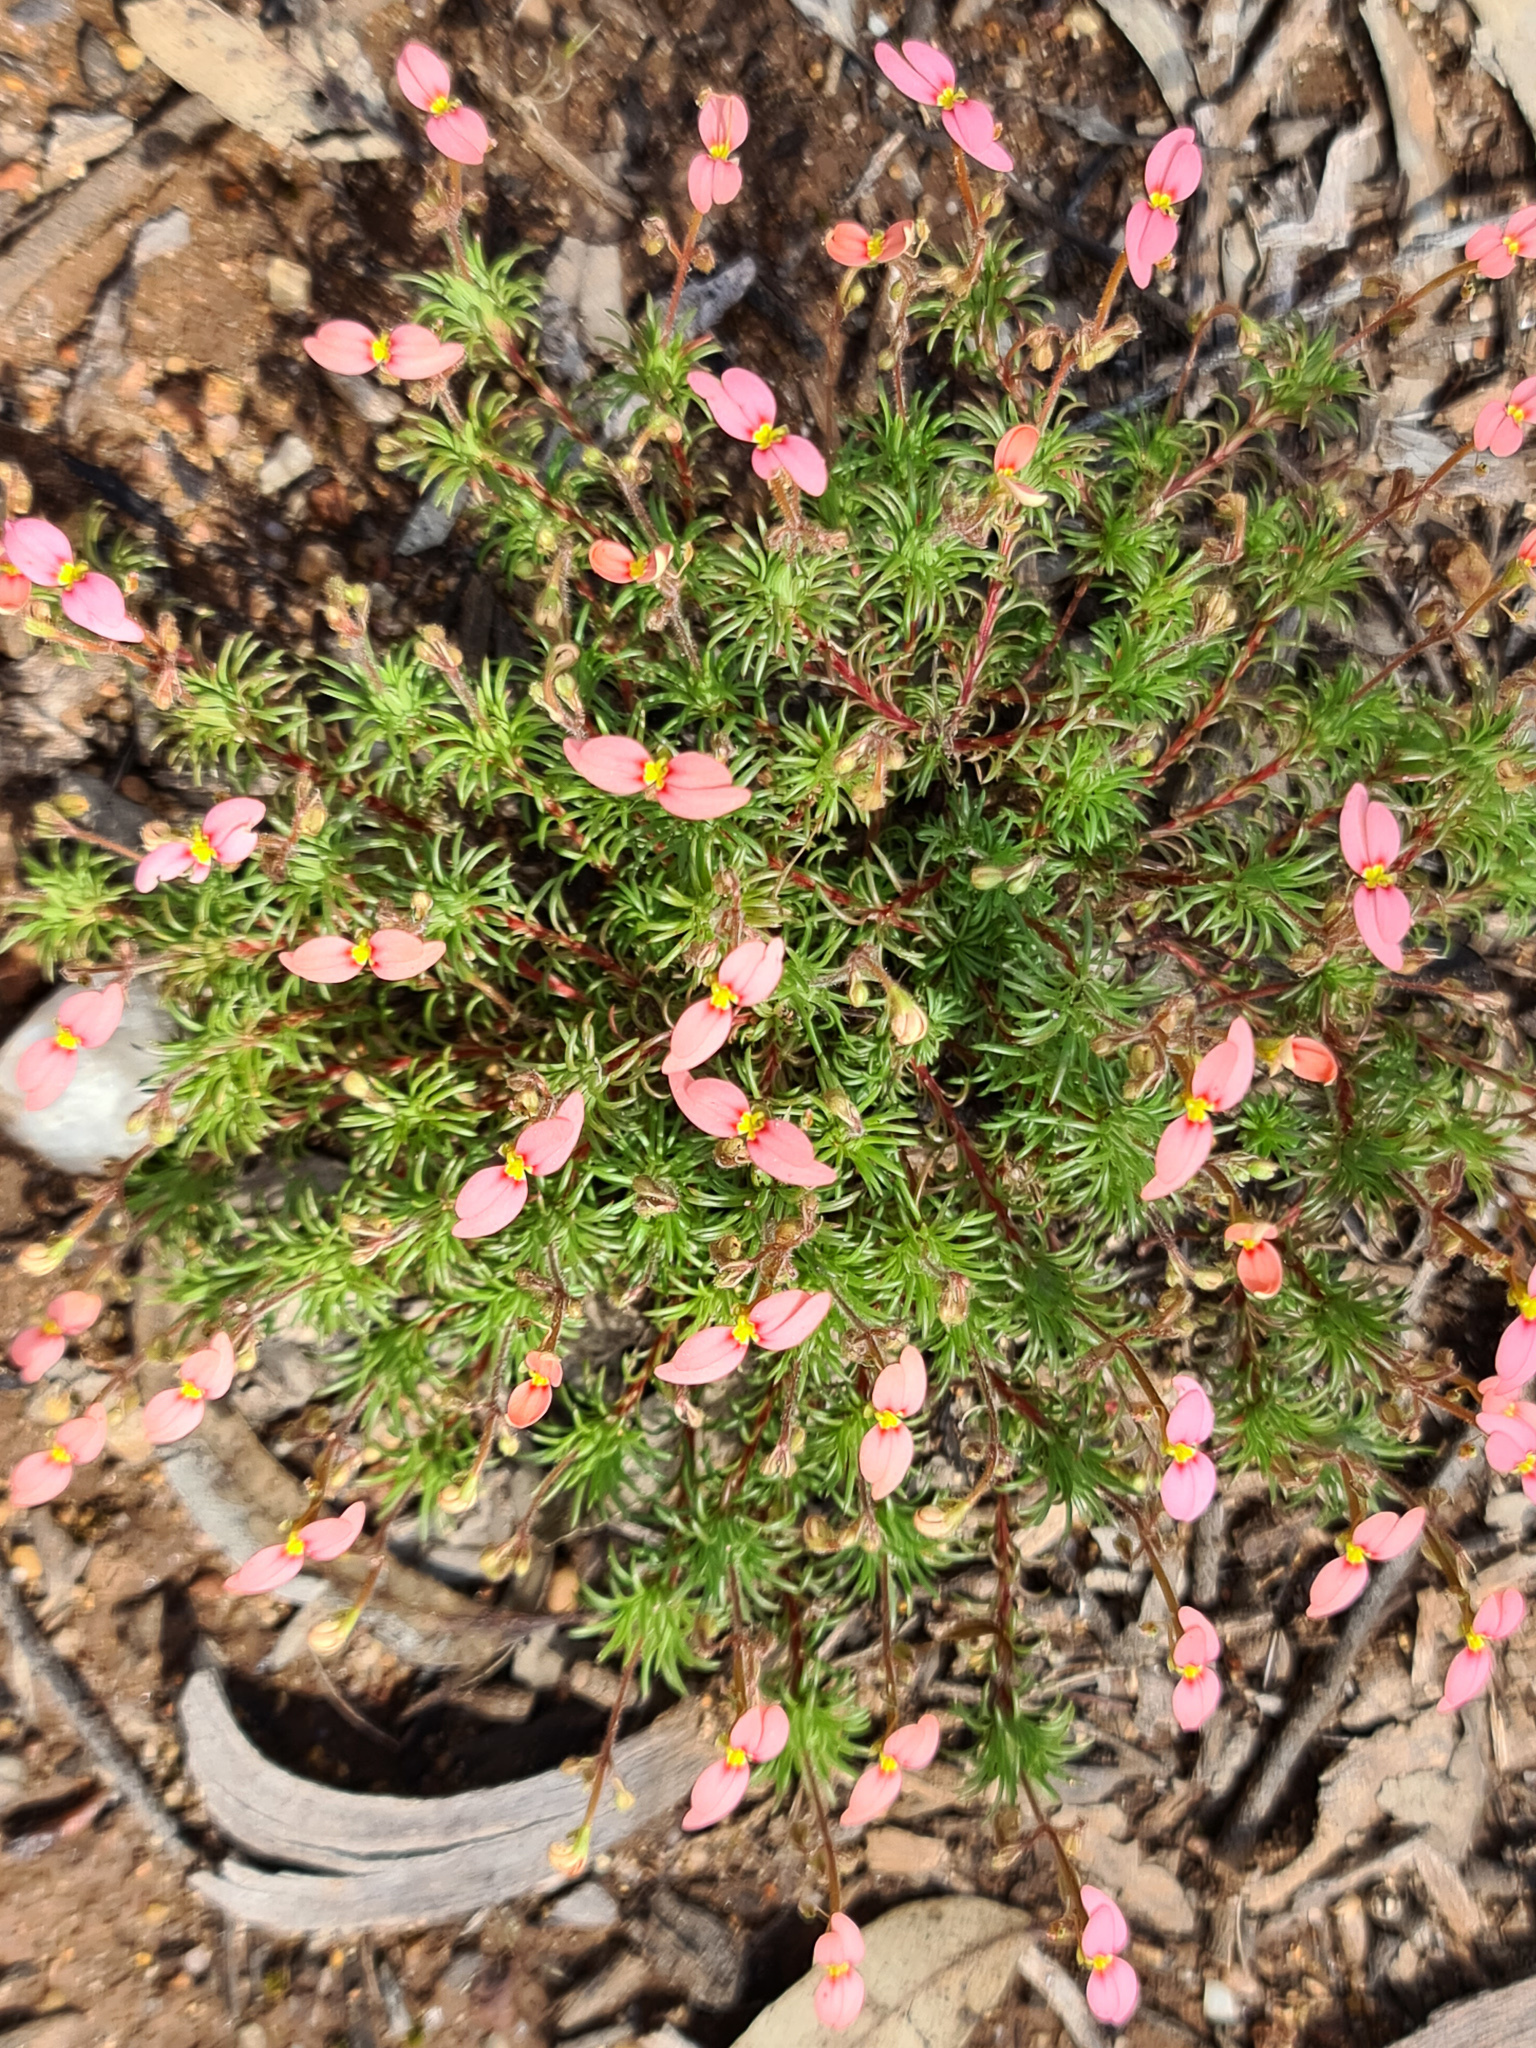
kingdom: Plantae
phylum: Tracheophyta
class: Magnoliopsida
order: Asterales
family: Stylidiaceae
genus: Stylidium
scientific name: Stylidium bulbiferum
